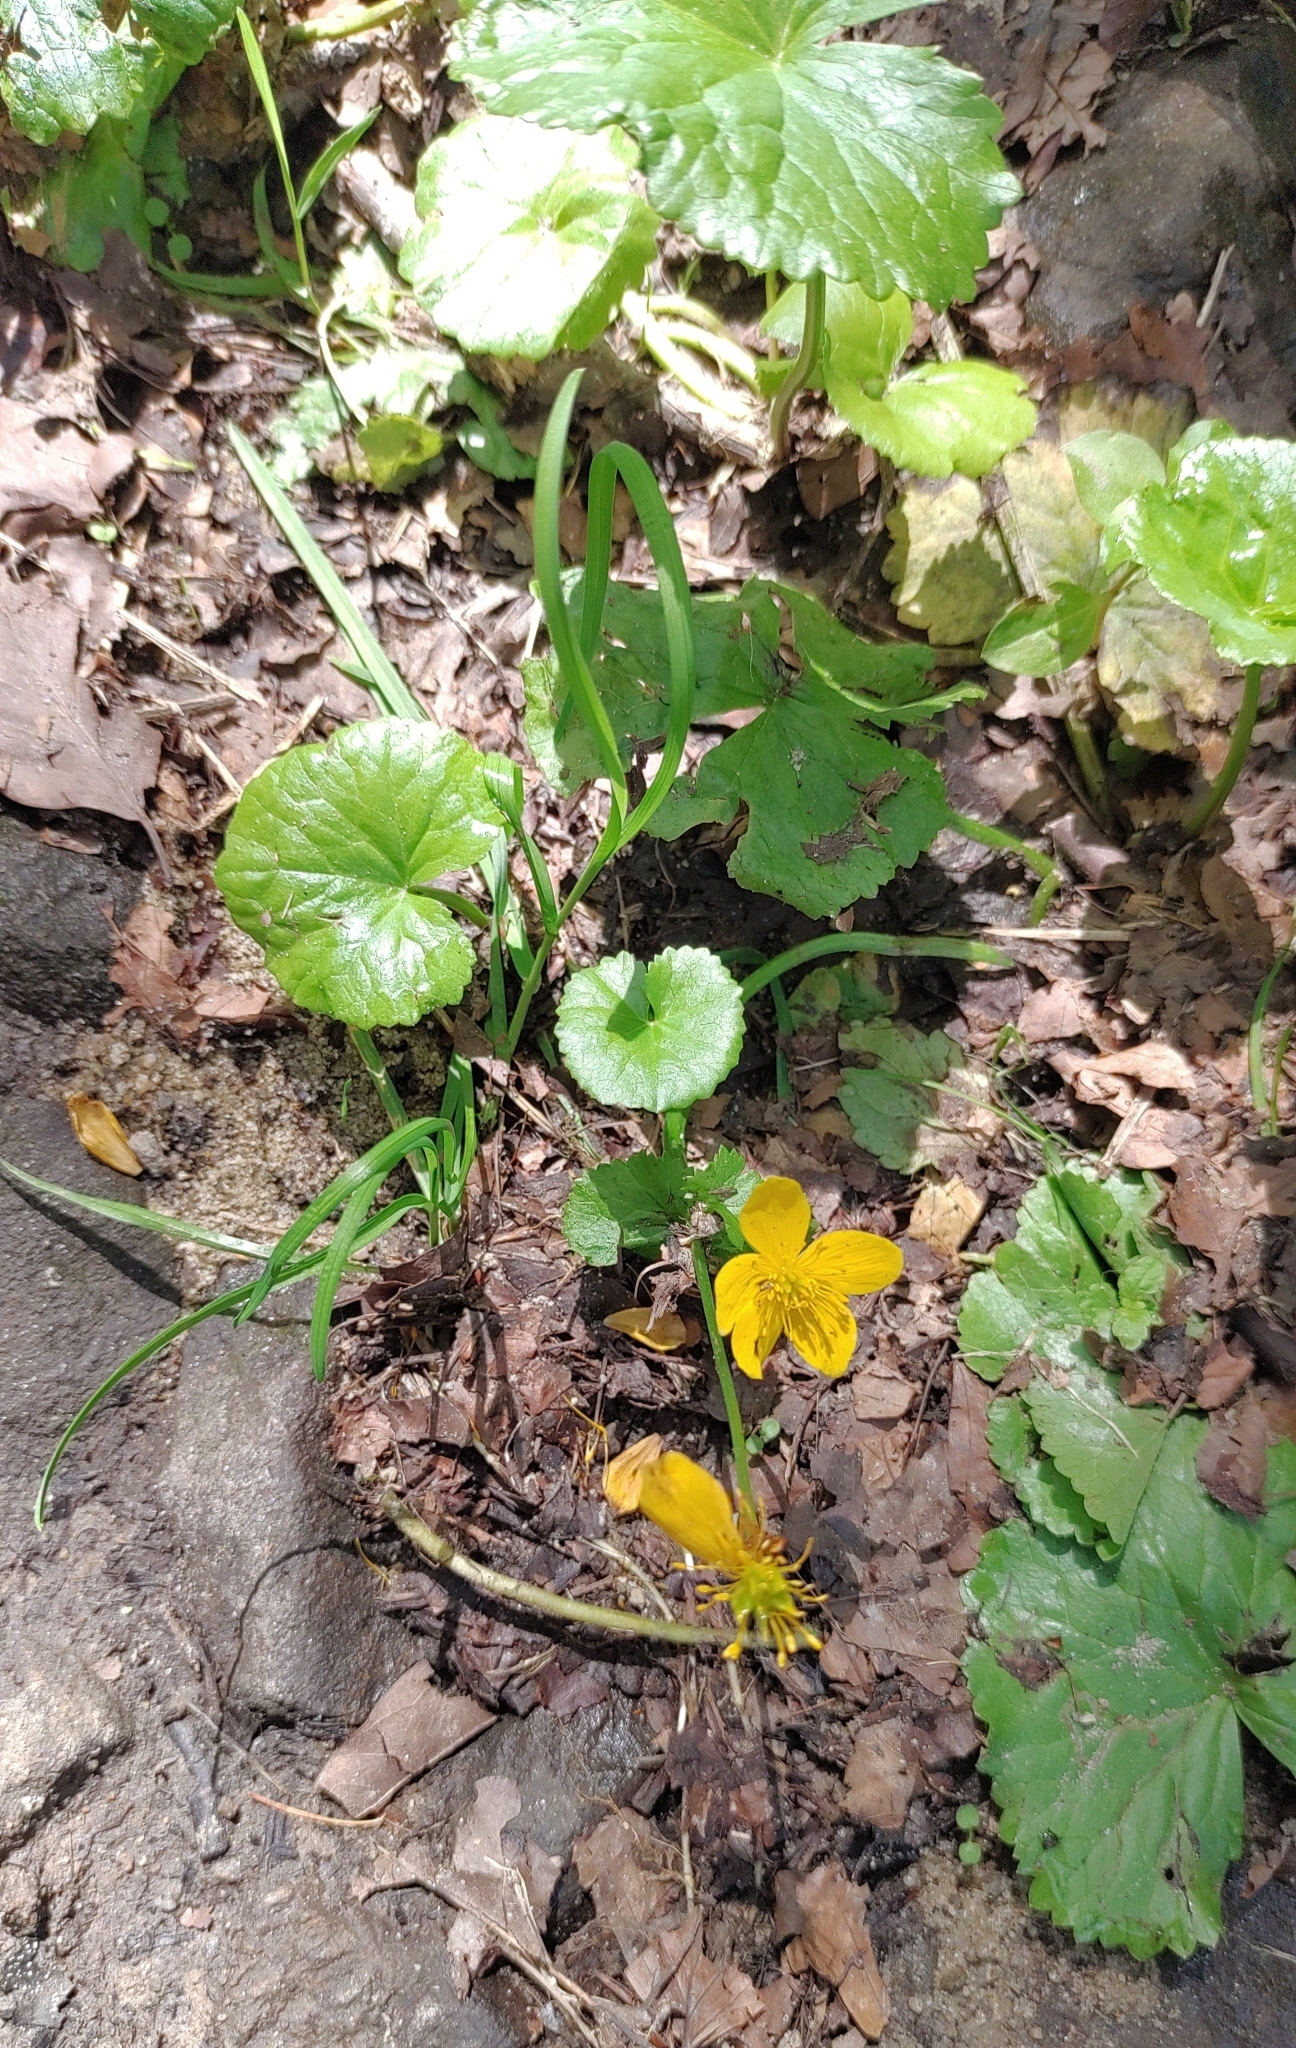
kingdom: Plantae
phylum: Tracheophyta
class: Magnoliopsida
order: Ranunculales
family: Ranunculaceae
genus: Caltha
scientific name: Caltha palustris
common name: Marsh marigold
